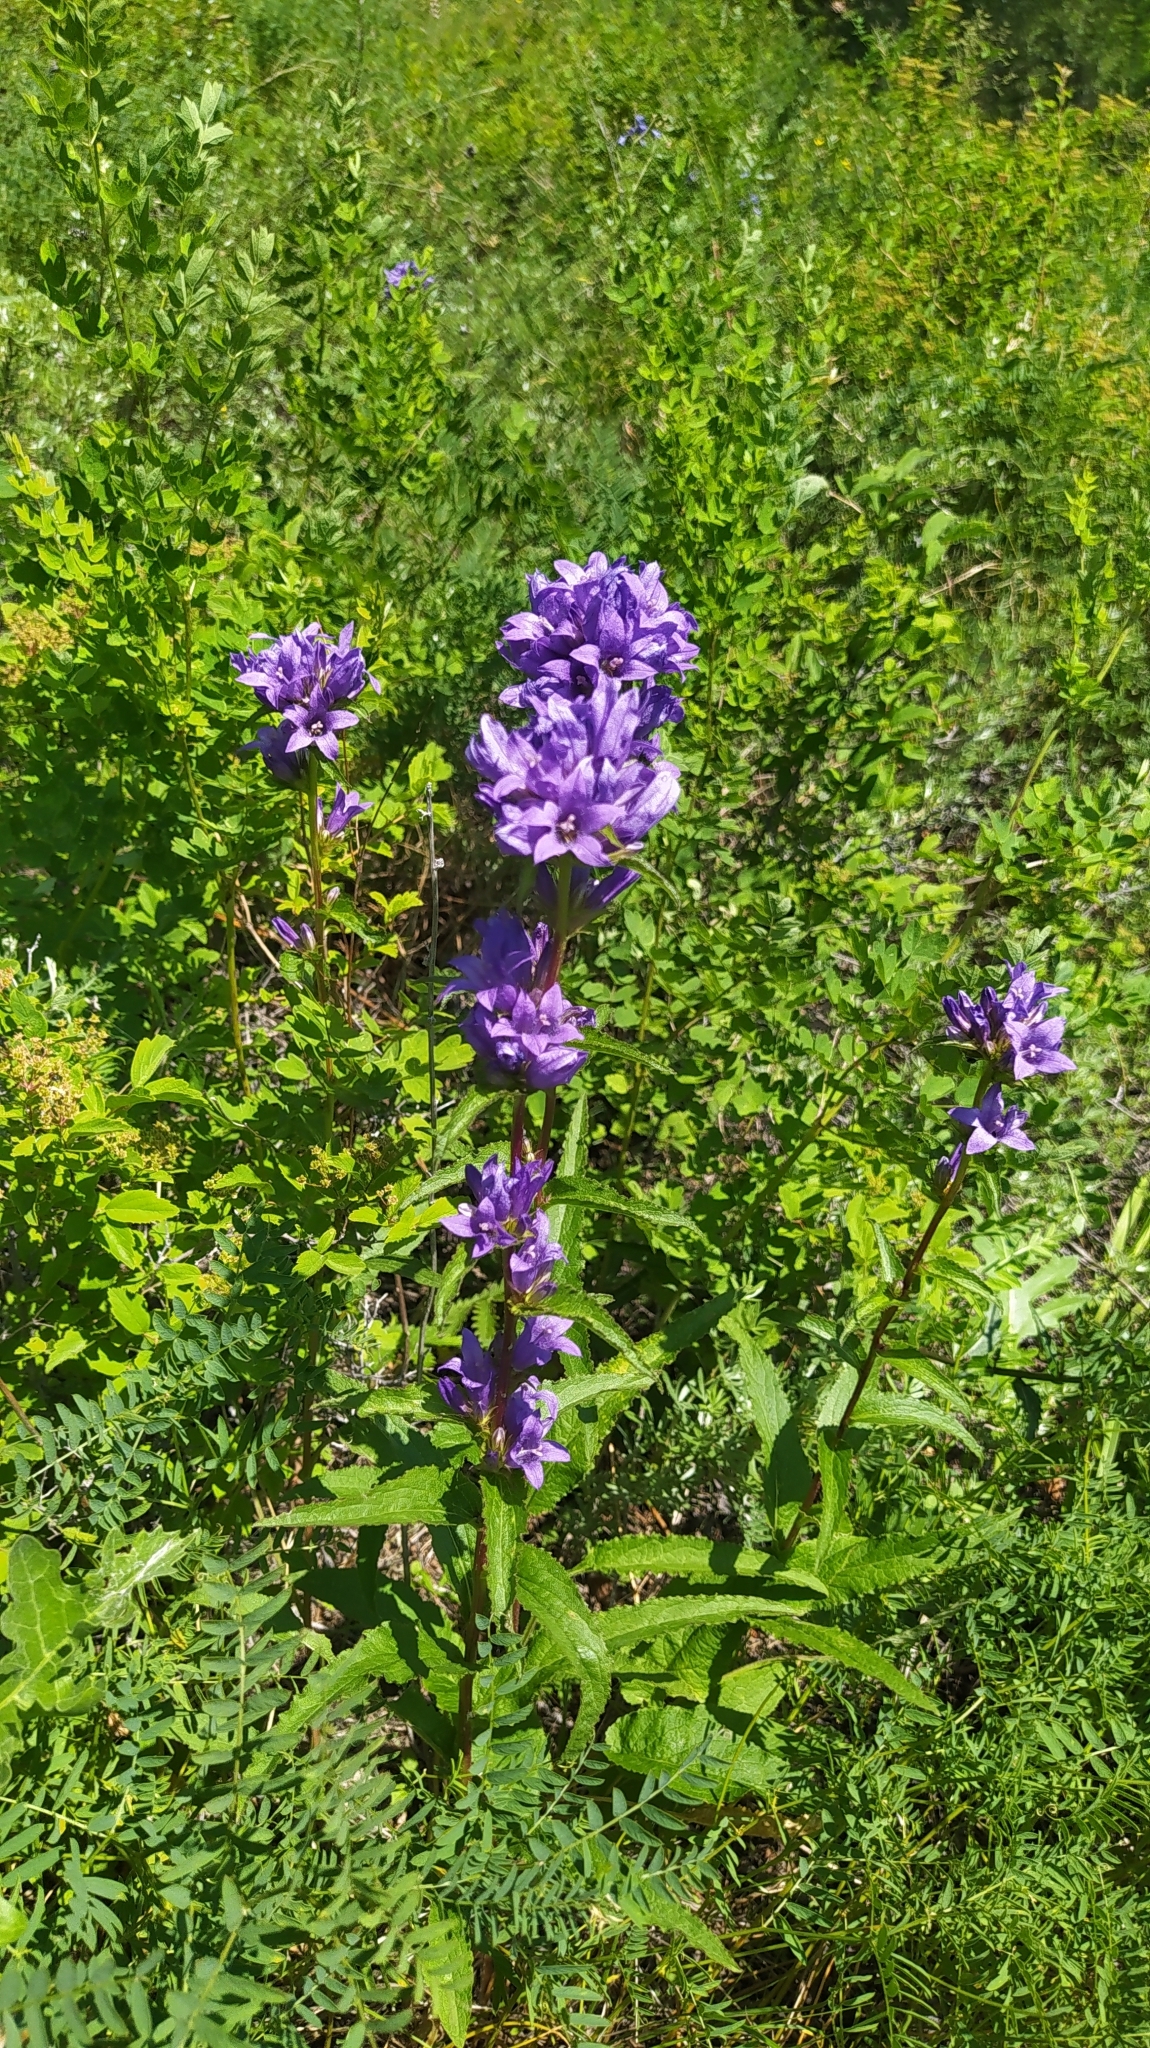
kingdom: Plantae
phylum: Tracheophyta
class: Magnoliopsida
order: Asterales
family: Campanulaceae
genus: Campanula
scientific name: Campanula glomerata
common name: Clustered bellflower
